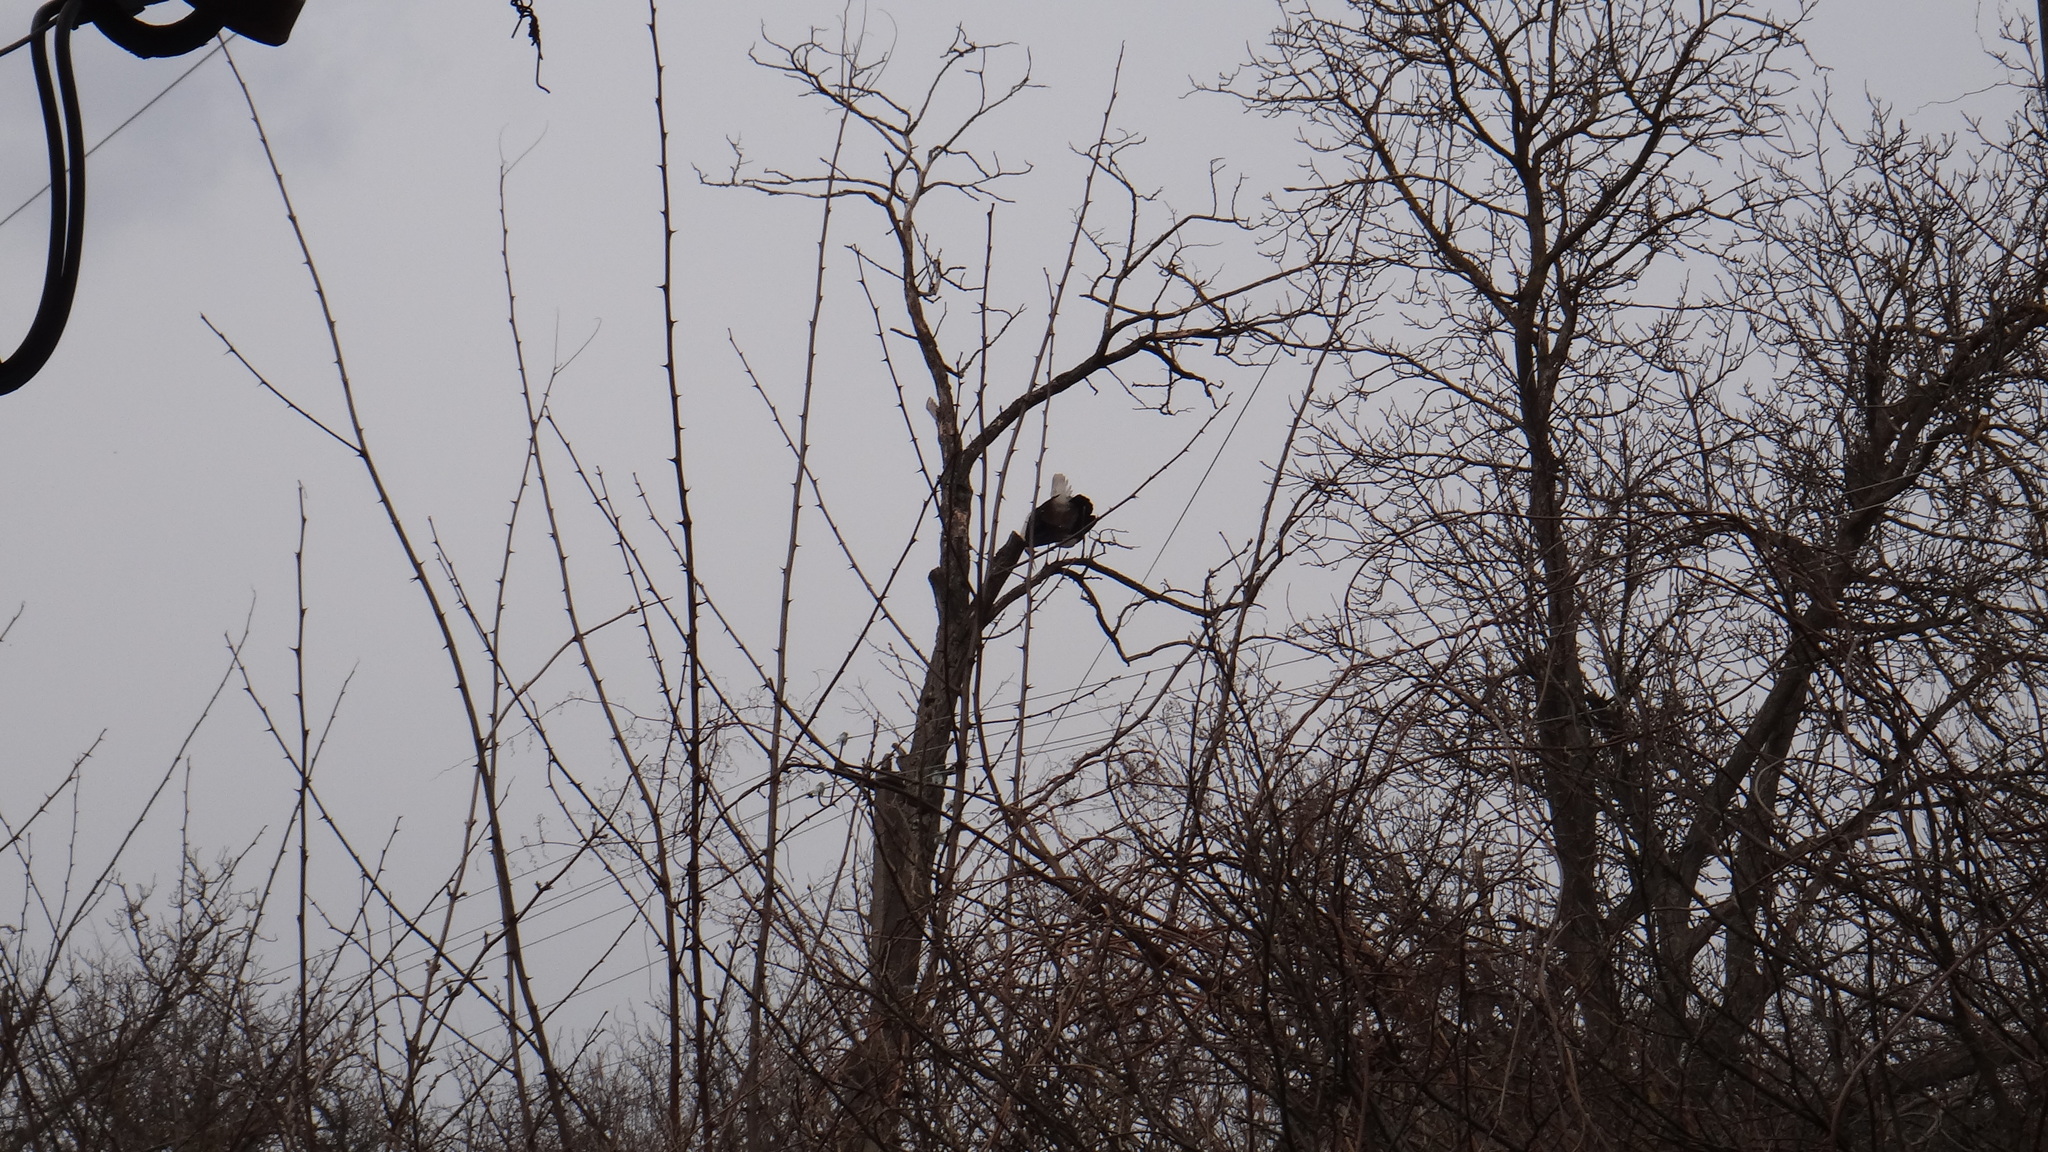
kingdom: Animalia
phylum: Chordata
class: Aves
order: Ciconiiformes
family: Ciconiidae
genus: Ciconia
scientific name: Ciconia ciconia
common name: White stork
